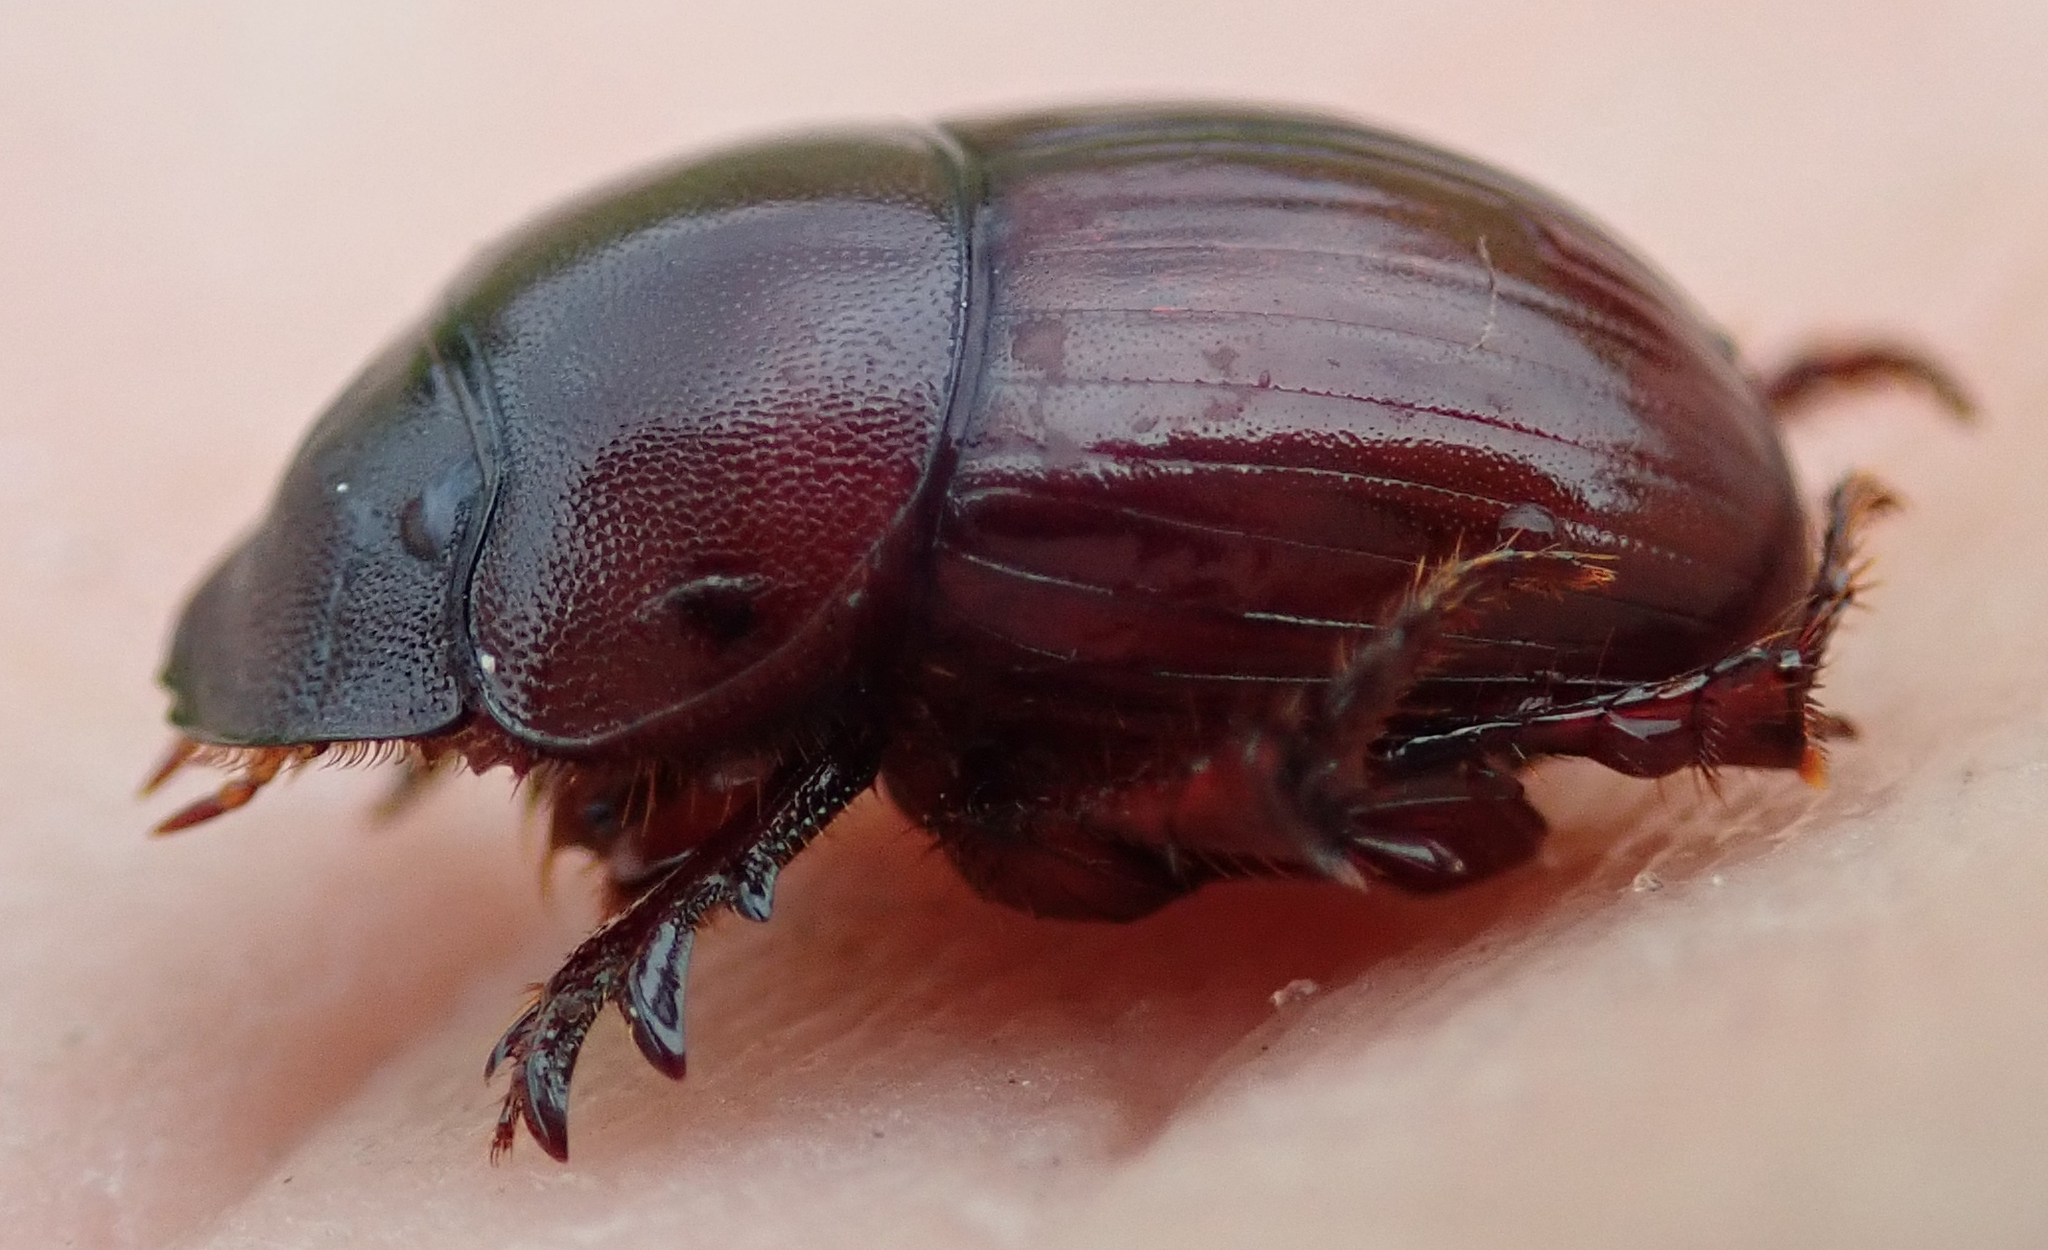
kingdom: Animalia
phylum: Arthropoda
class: Insecta
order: Coleoptera
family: Scarabaeidae
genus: Metacatharsius
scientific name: Metacatharsius marani
